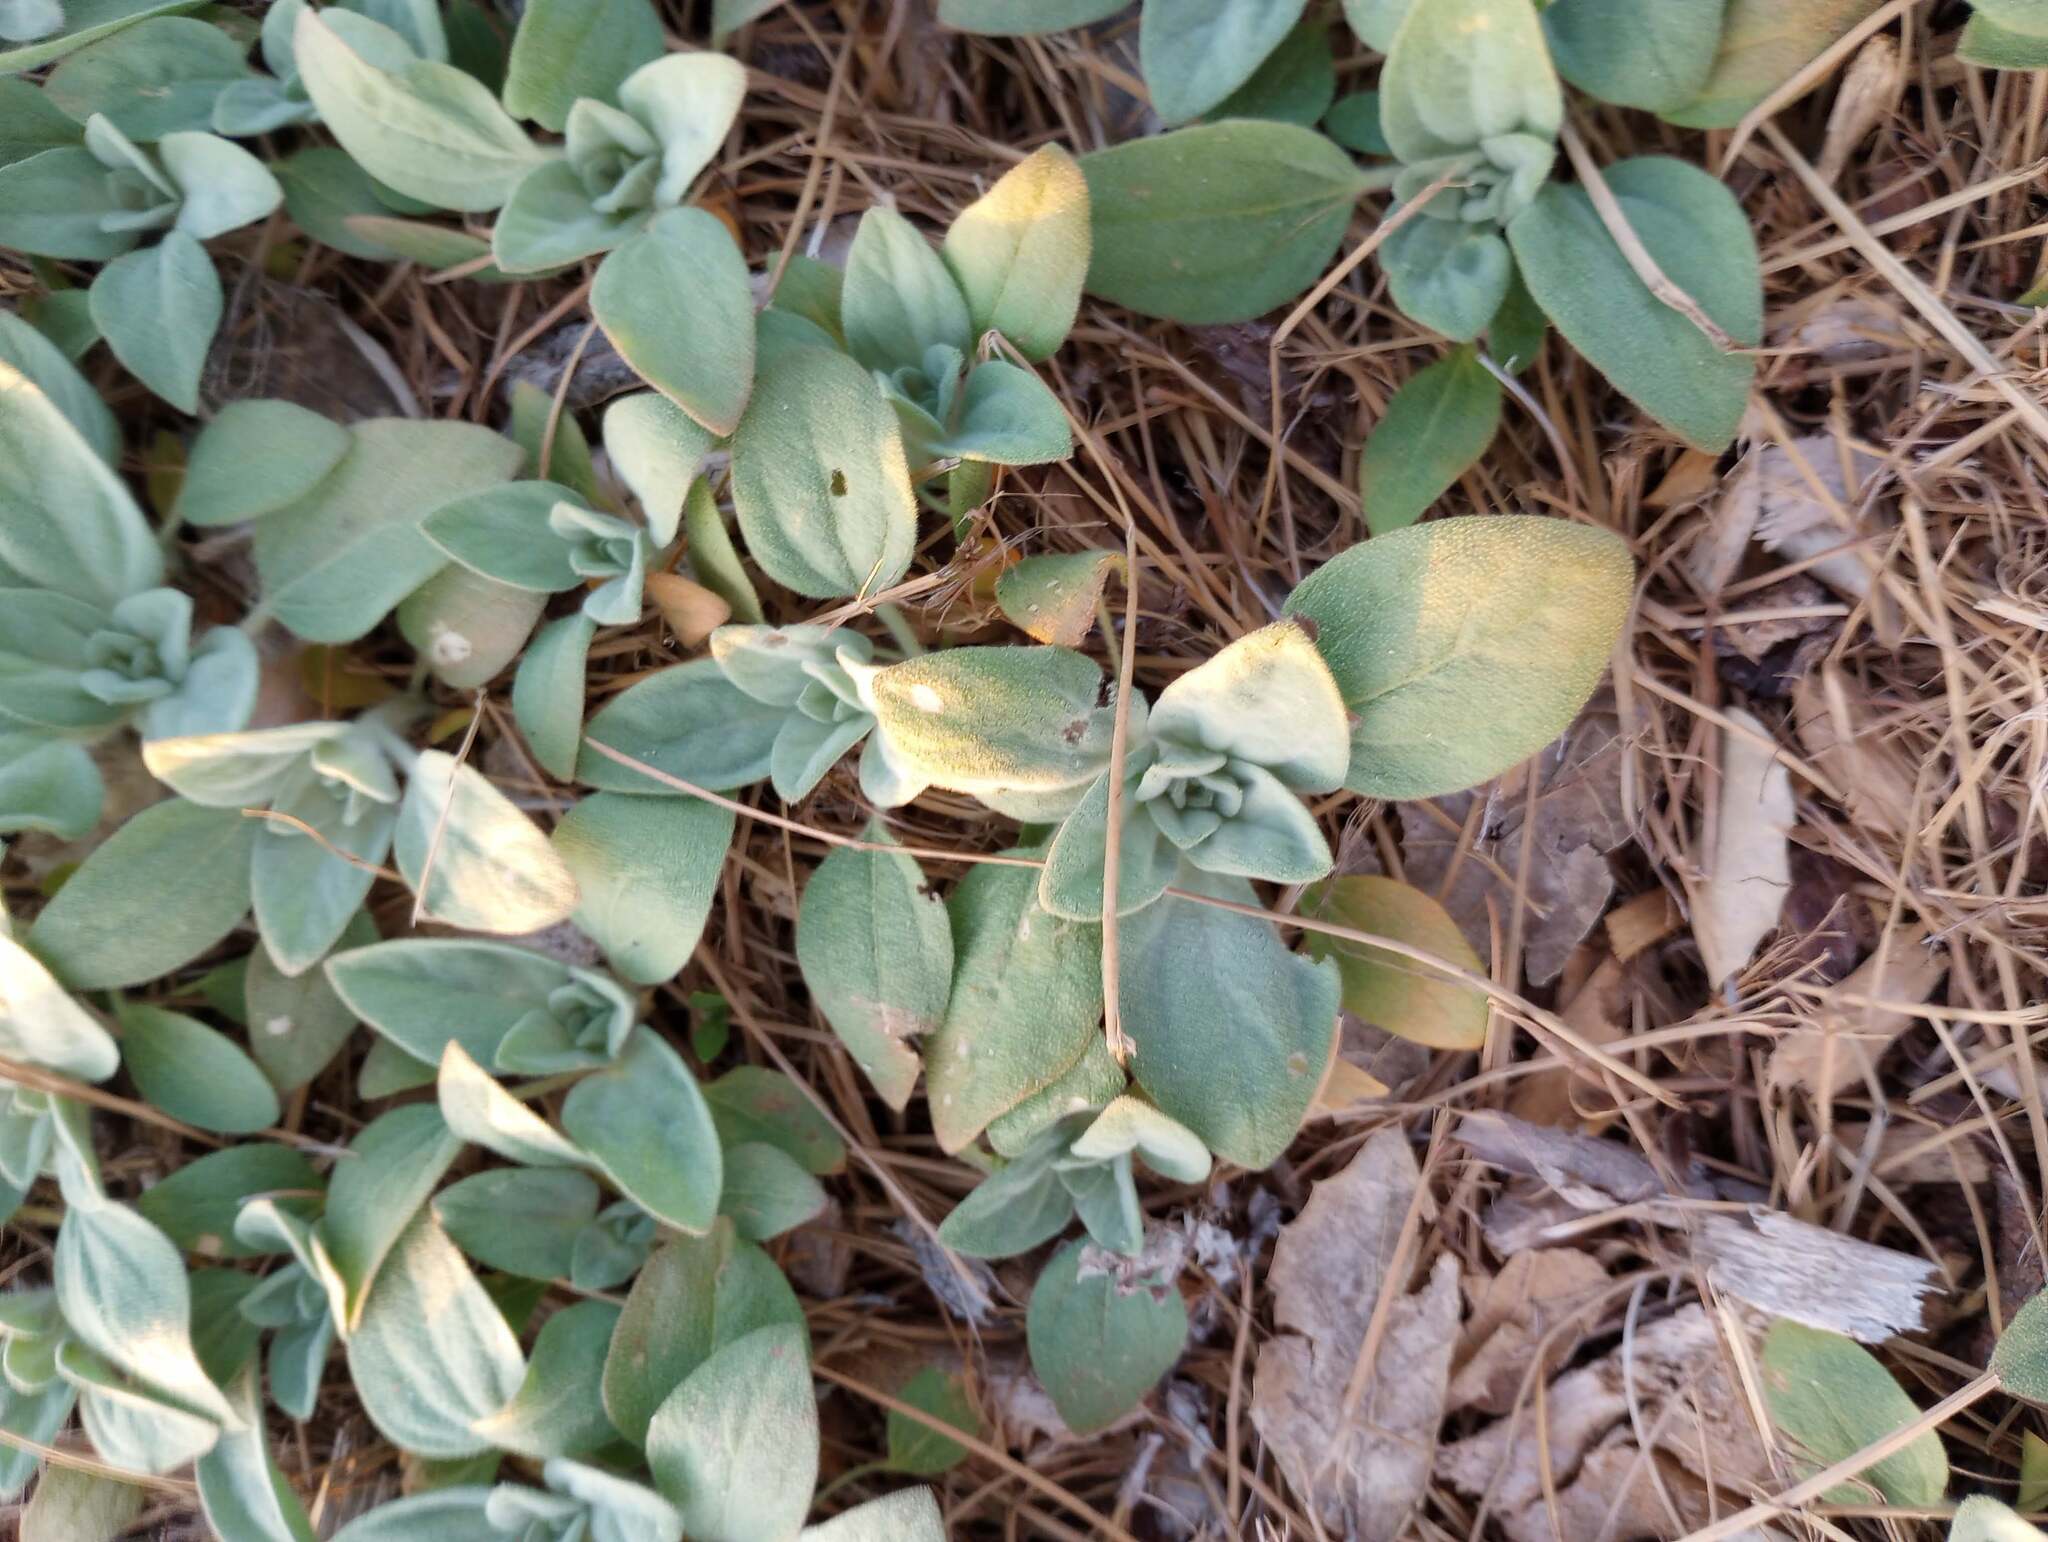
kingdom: Plantae
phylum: Tracheophyta
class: Magnoliopsida
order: Malpighiales
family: Euphorbiaceae
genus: Croton
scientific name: Croton setiger
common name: Dove weed
